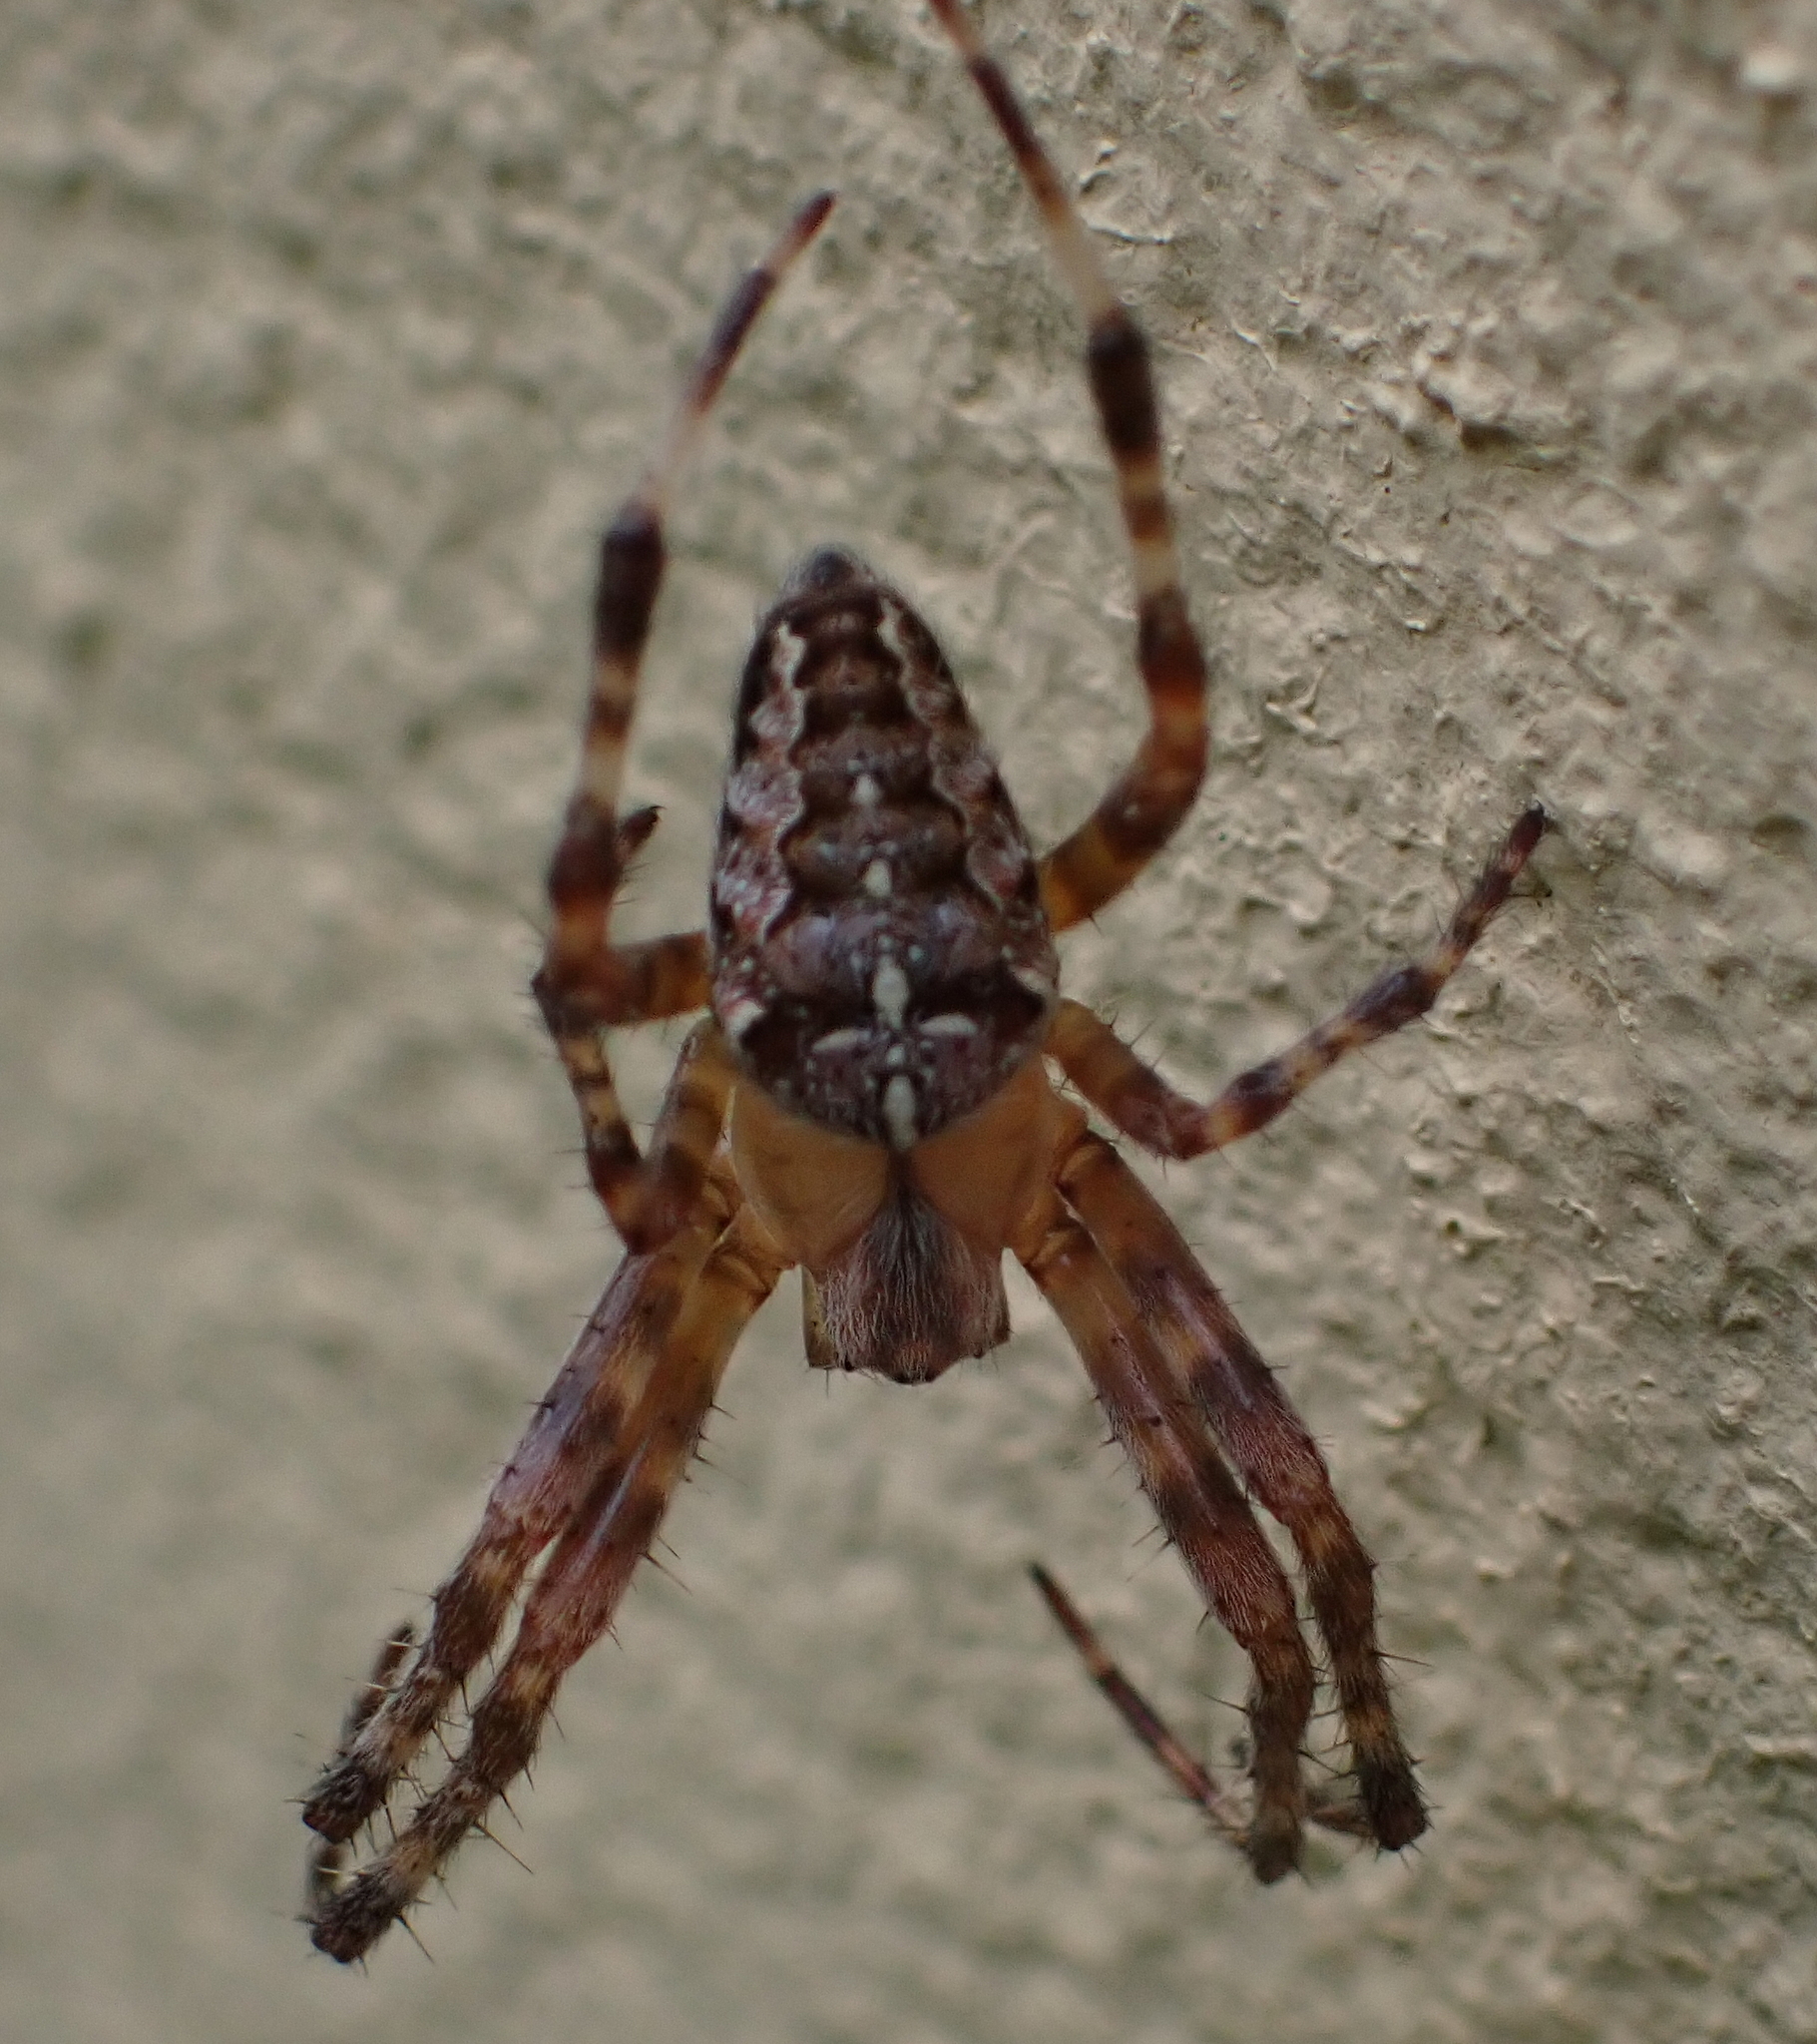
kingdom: Animalia
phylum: Arthropoda
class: Arachnida
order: Araneae
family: Araneidae
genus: Araneus
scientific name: Araneus diadematus
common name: Cross orbweaver
